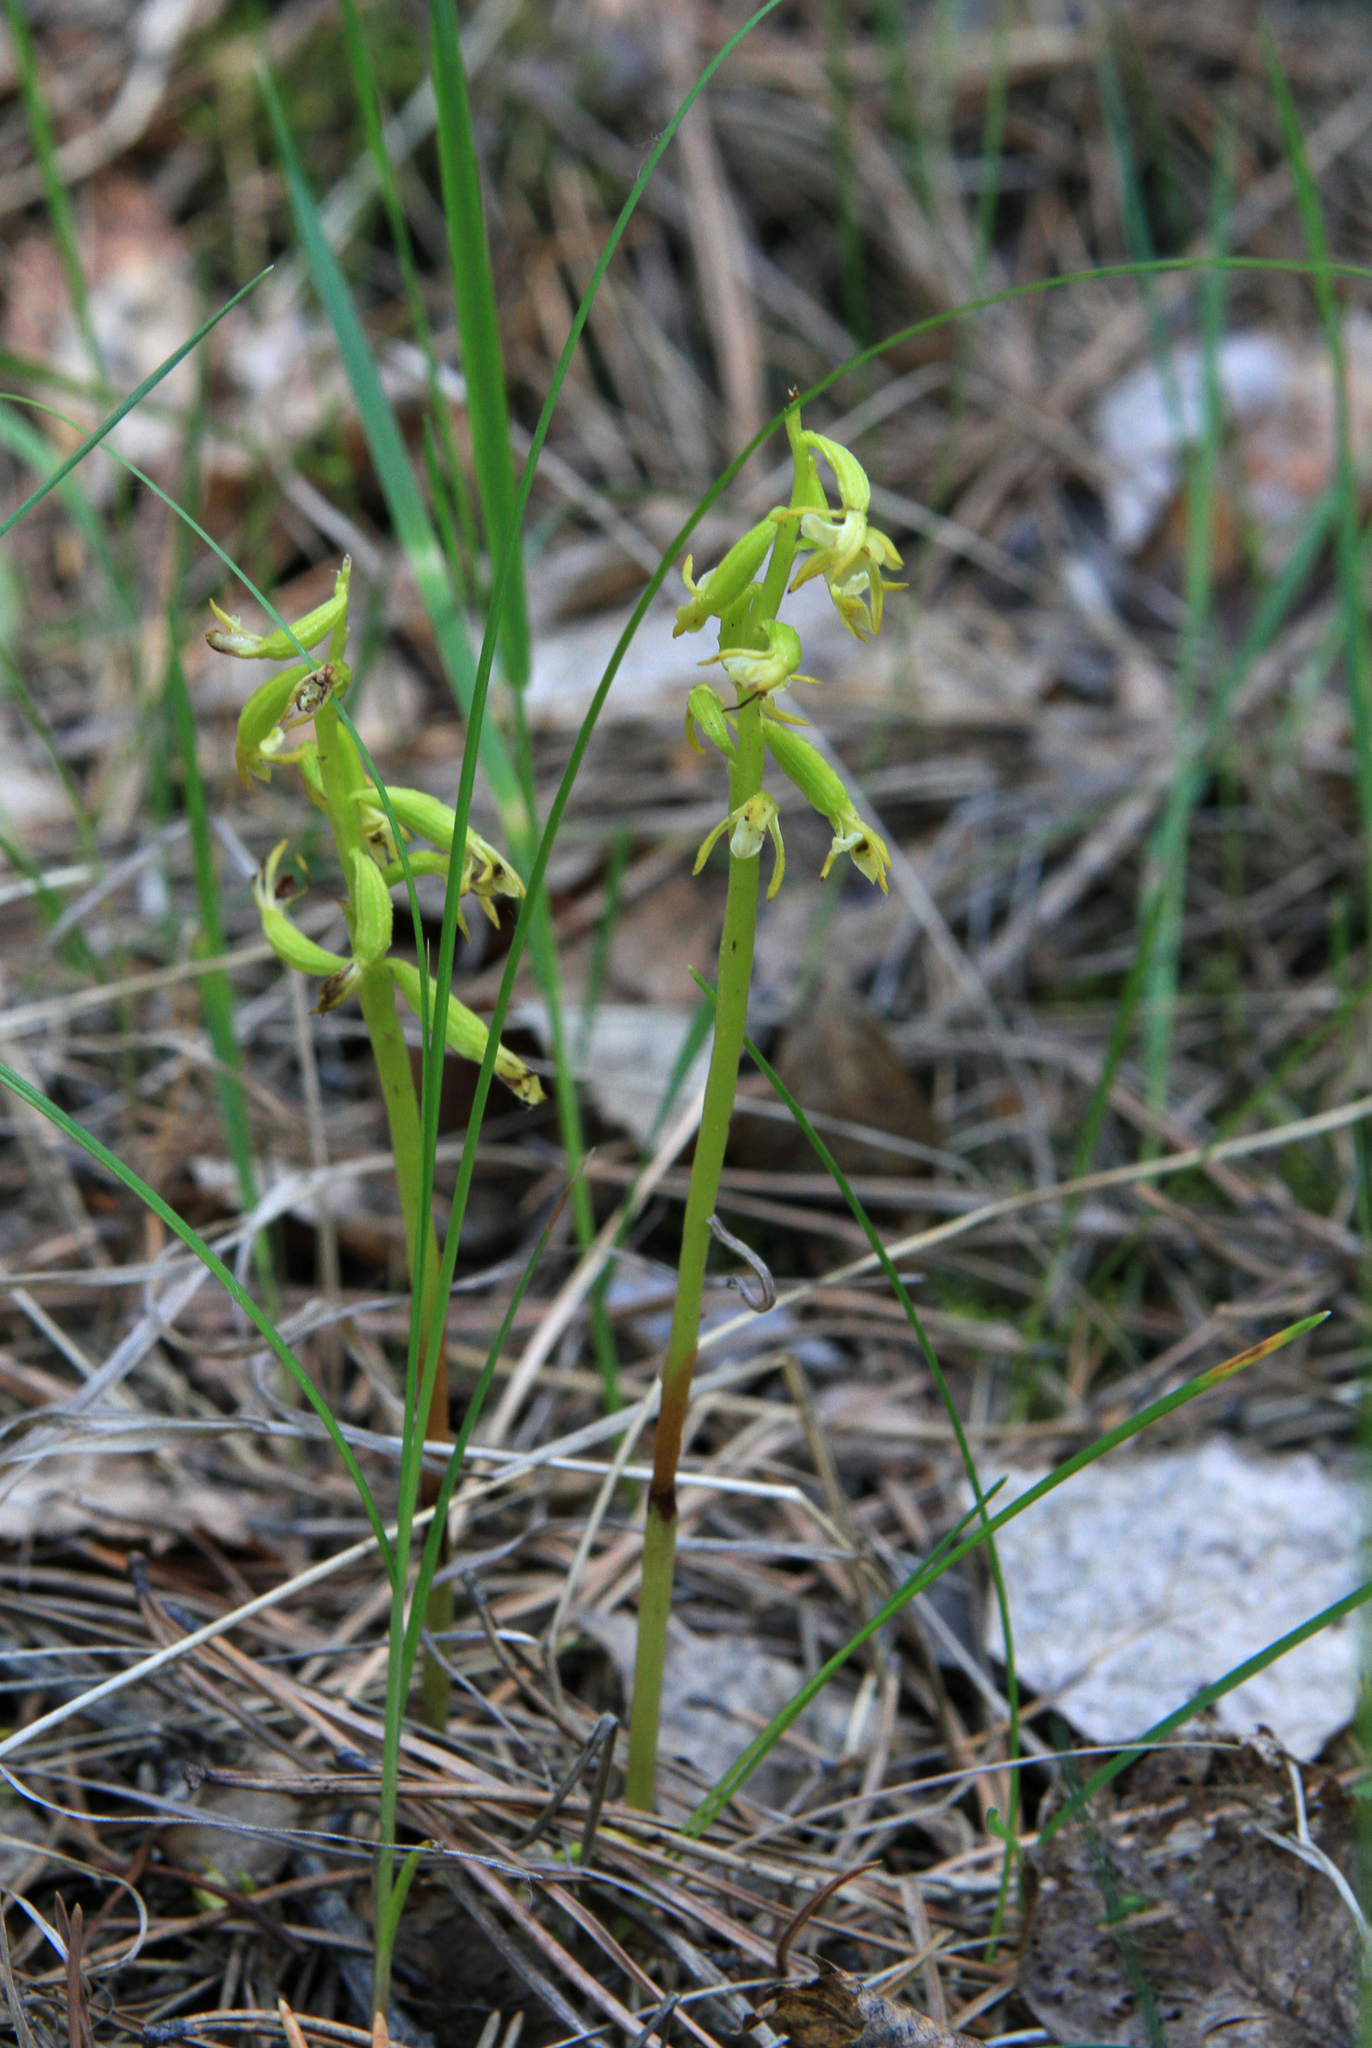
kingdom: Plantae
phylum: Tracheophyta
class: Liliopsida
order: Asparagales
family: Orchidaceae
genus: Corallorhiza
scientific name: Corallorhiza trifida
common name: Yellow coralroot
